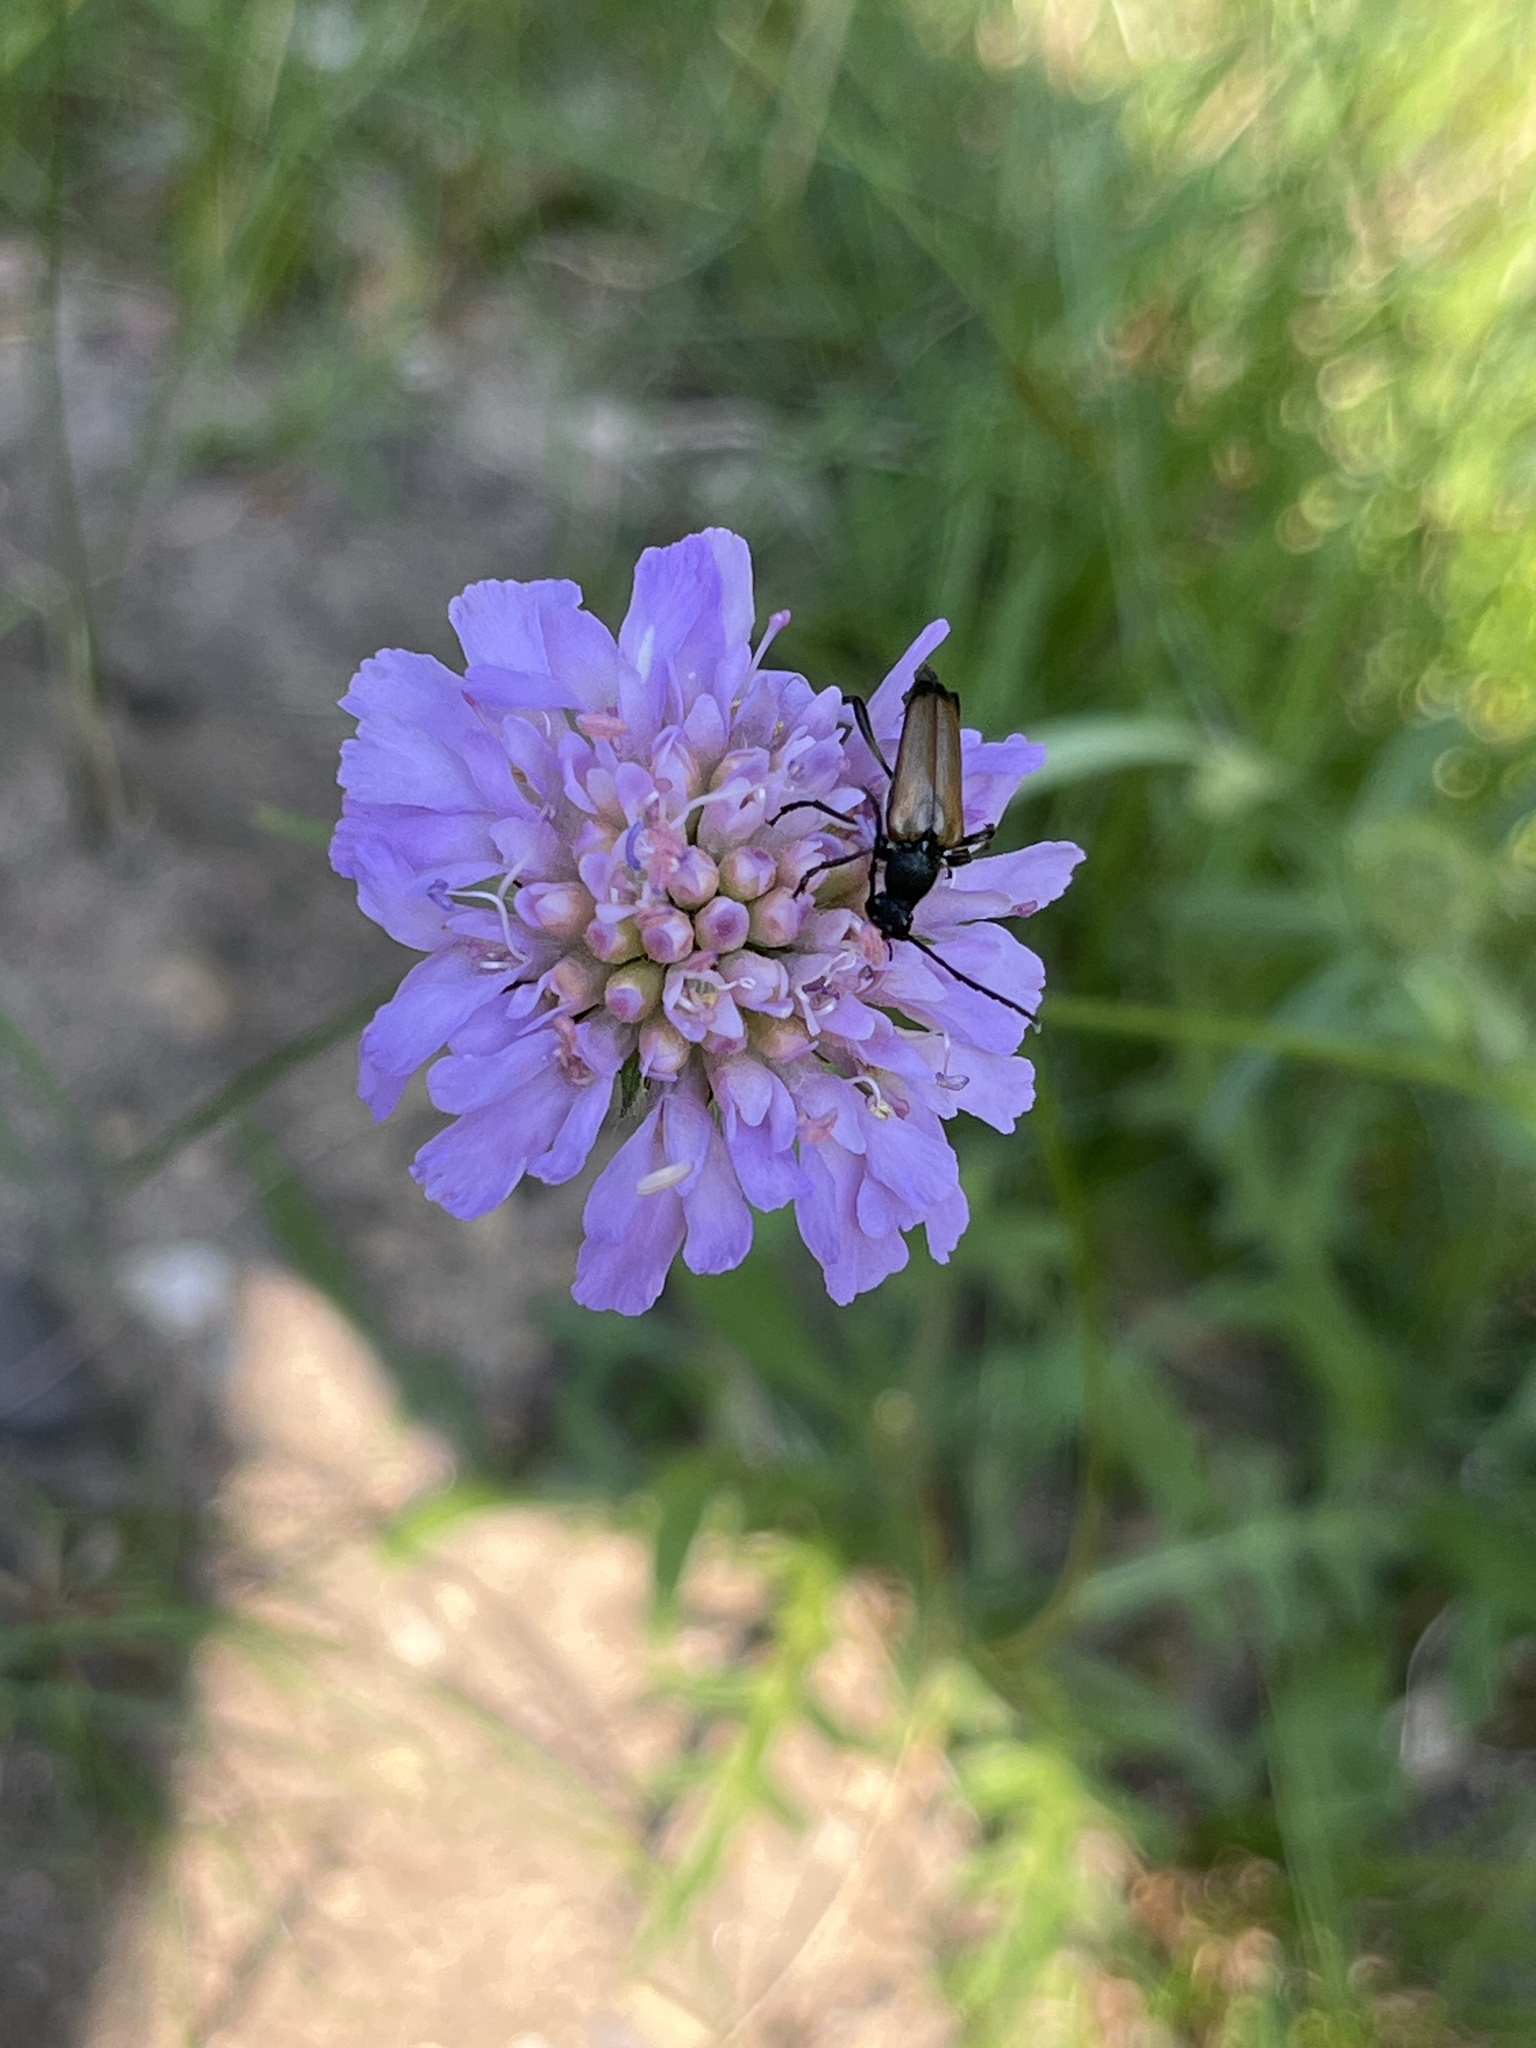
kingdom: Plantae
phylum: Tracheophyta
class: Magnoliopsida
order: Dipsacales
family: Caprifoliaceae
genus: Knautia
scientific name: Knautia arvensis
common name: Field scabiosa
